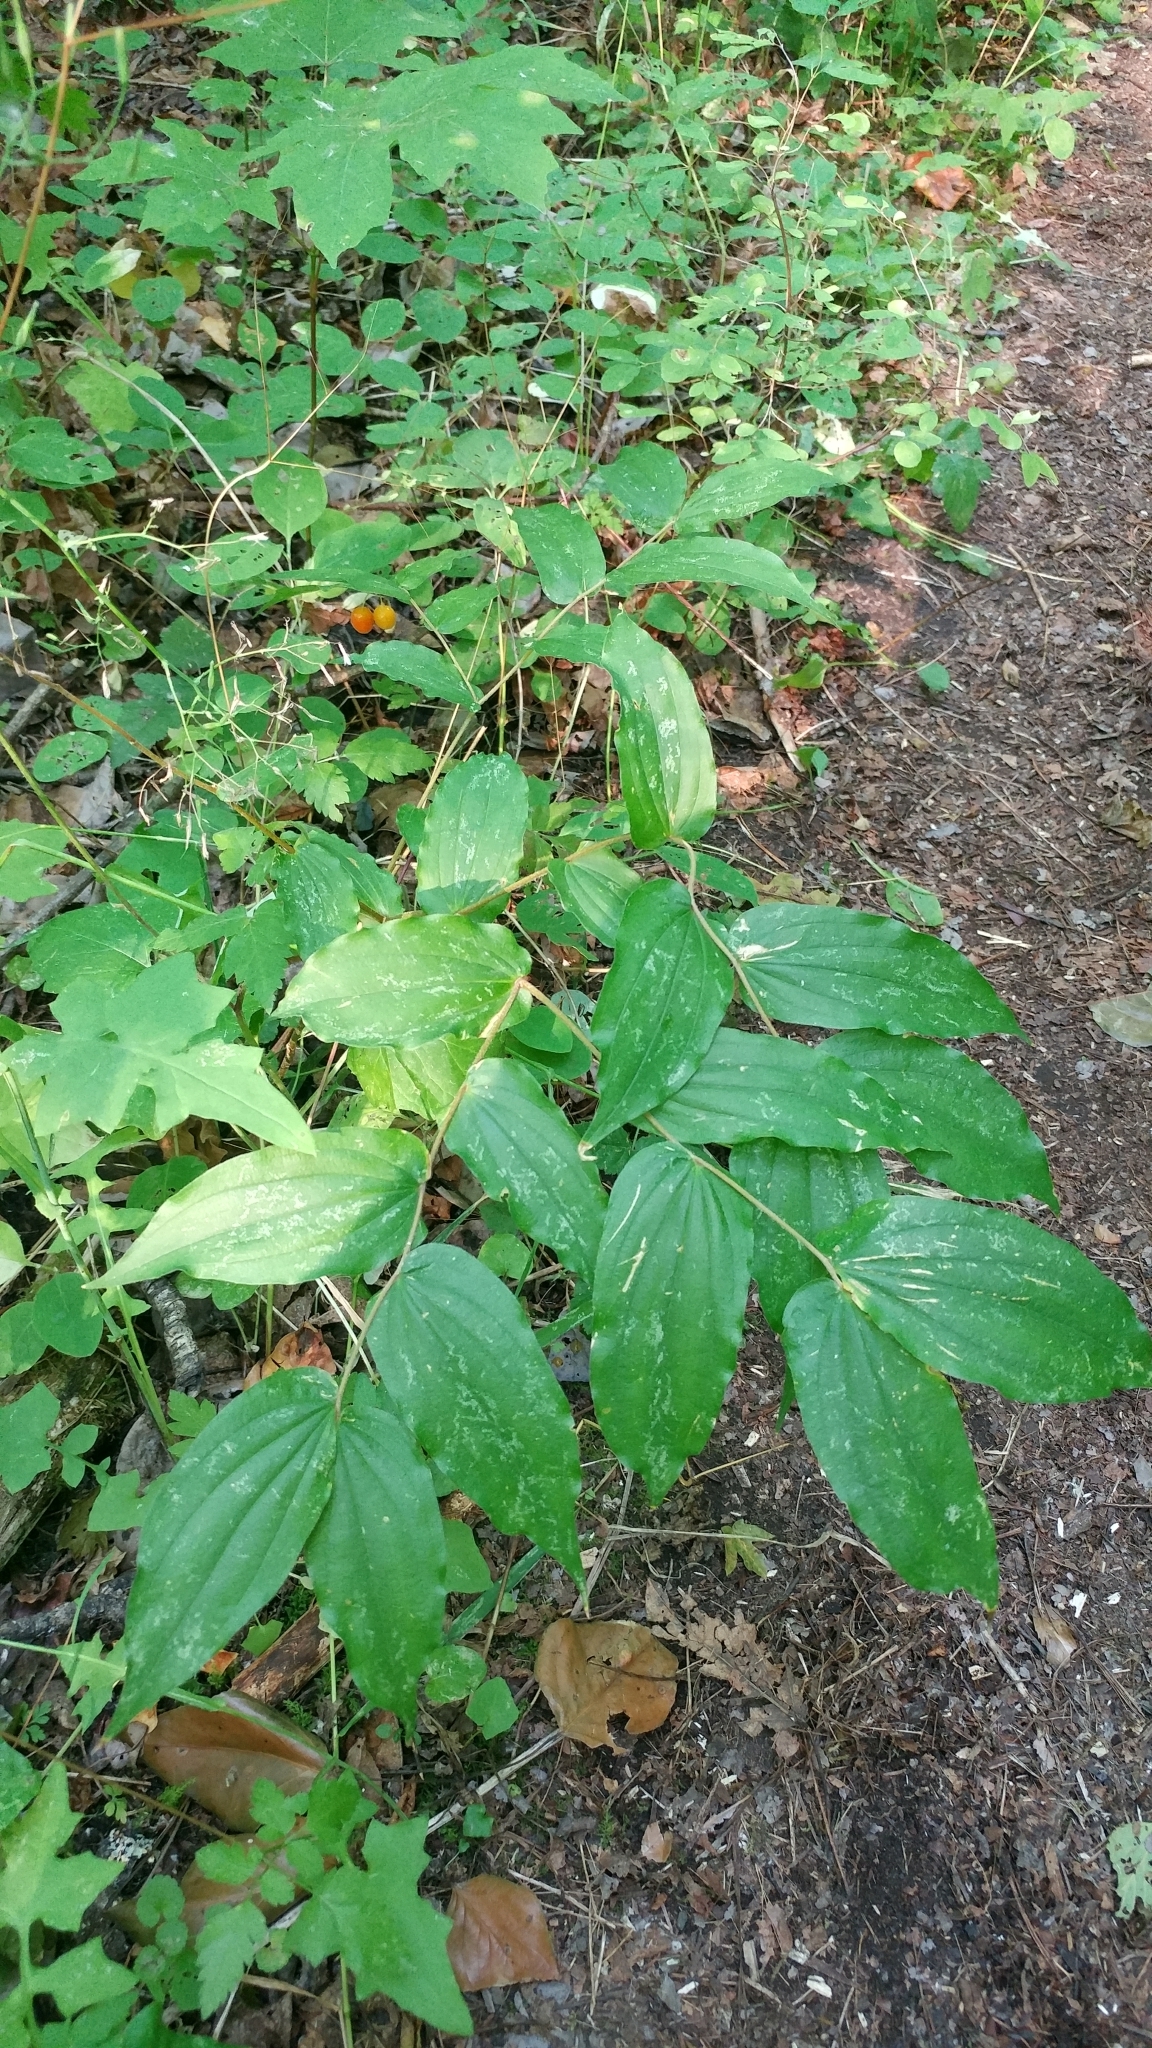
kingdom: Plantae
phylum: Tracheophyta
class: Liliopsida
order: Liliales
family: Liliaceae
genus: Prosartes
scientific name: Prosartes hookeri
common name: Fairy-bells
